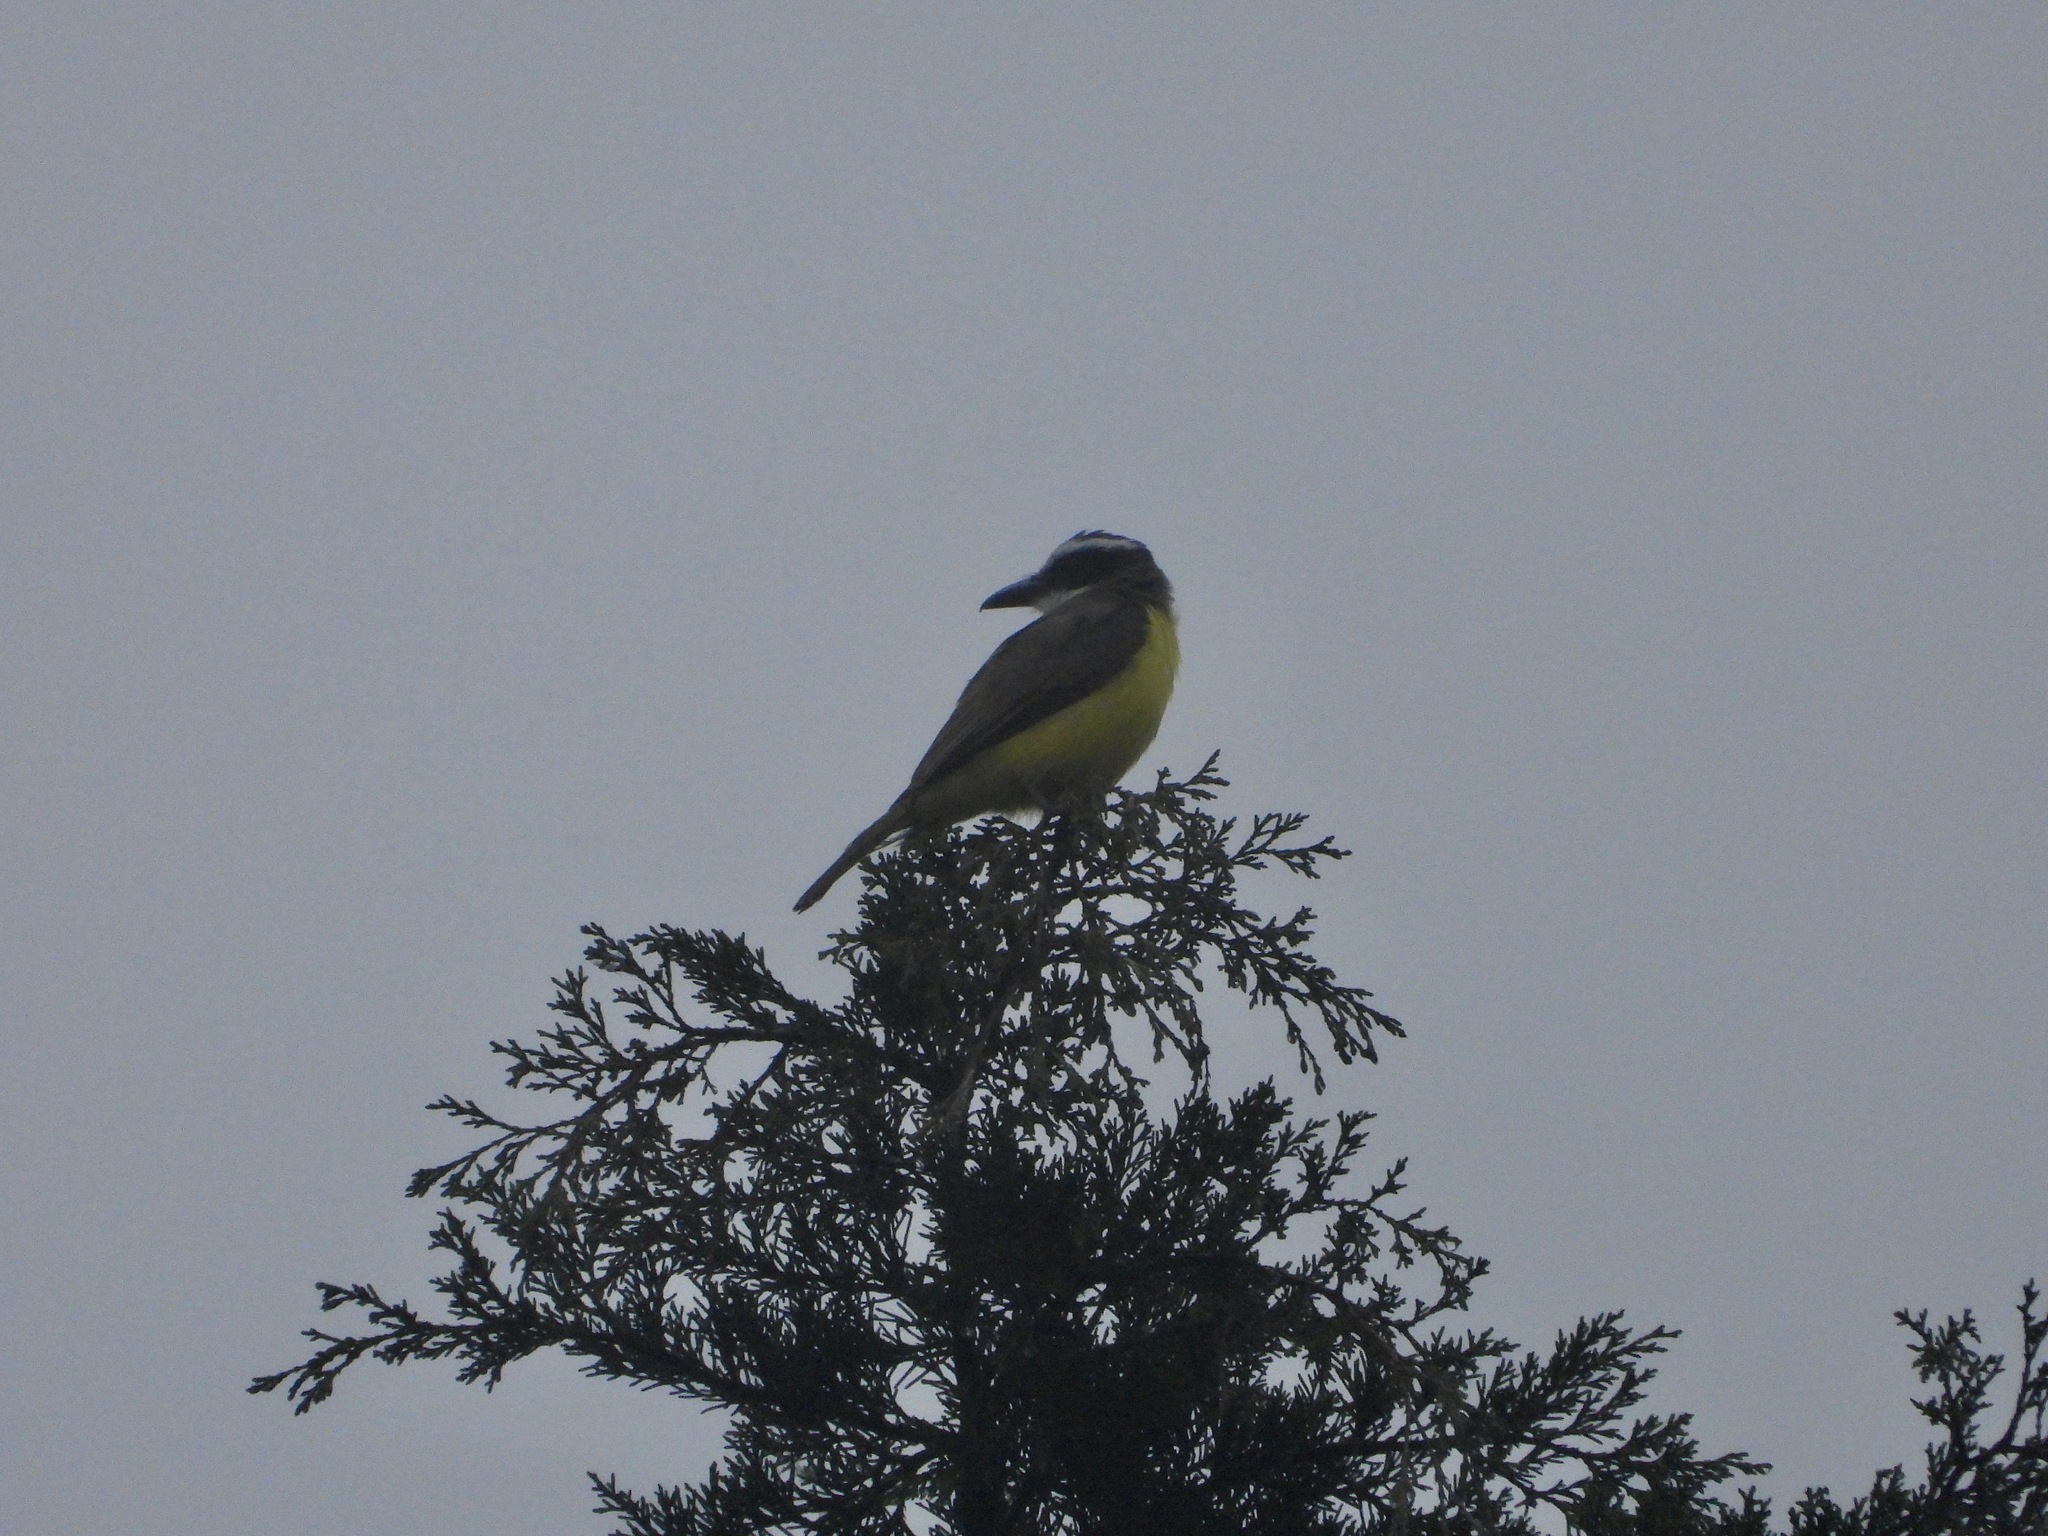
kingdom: Animalia
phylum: Chordata
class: Aves
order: Passeriformes
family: Tyrannidae
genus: Megarynchus
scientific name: Megarynchus pitangua
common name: Boat-billed flycatcher
